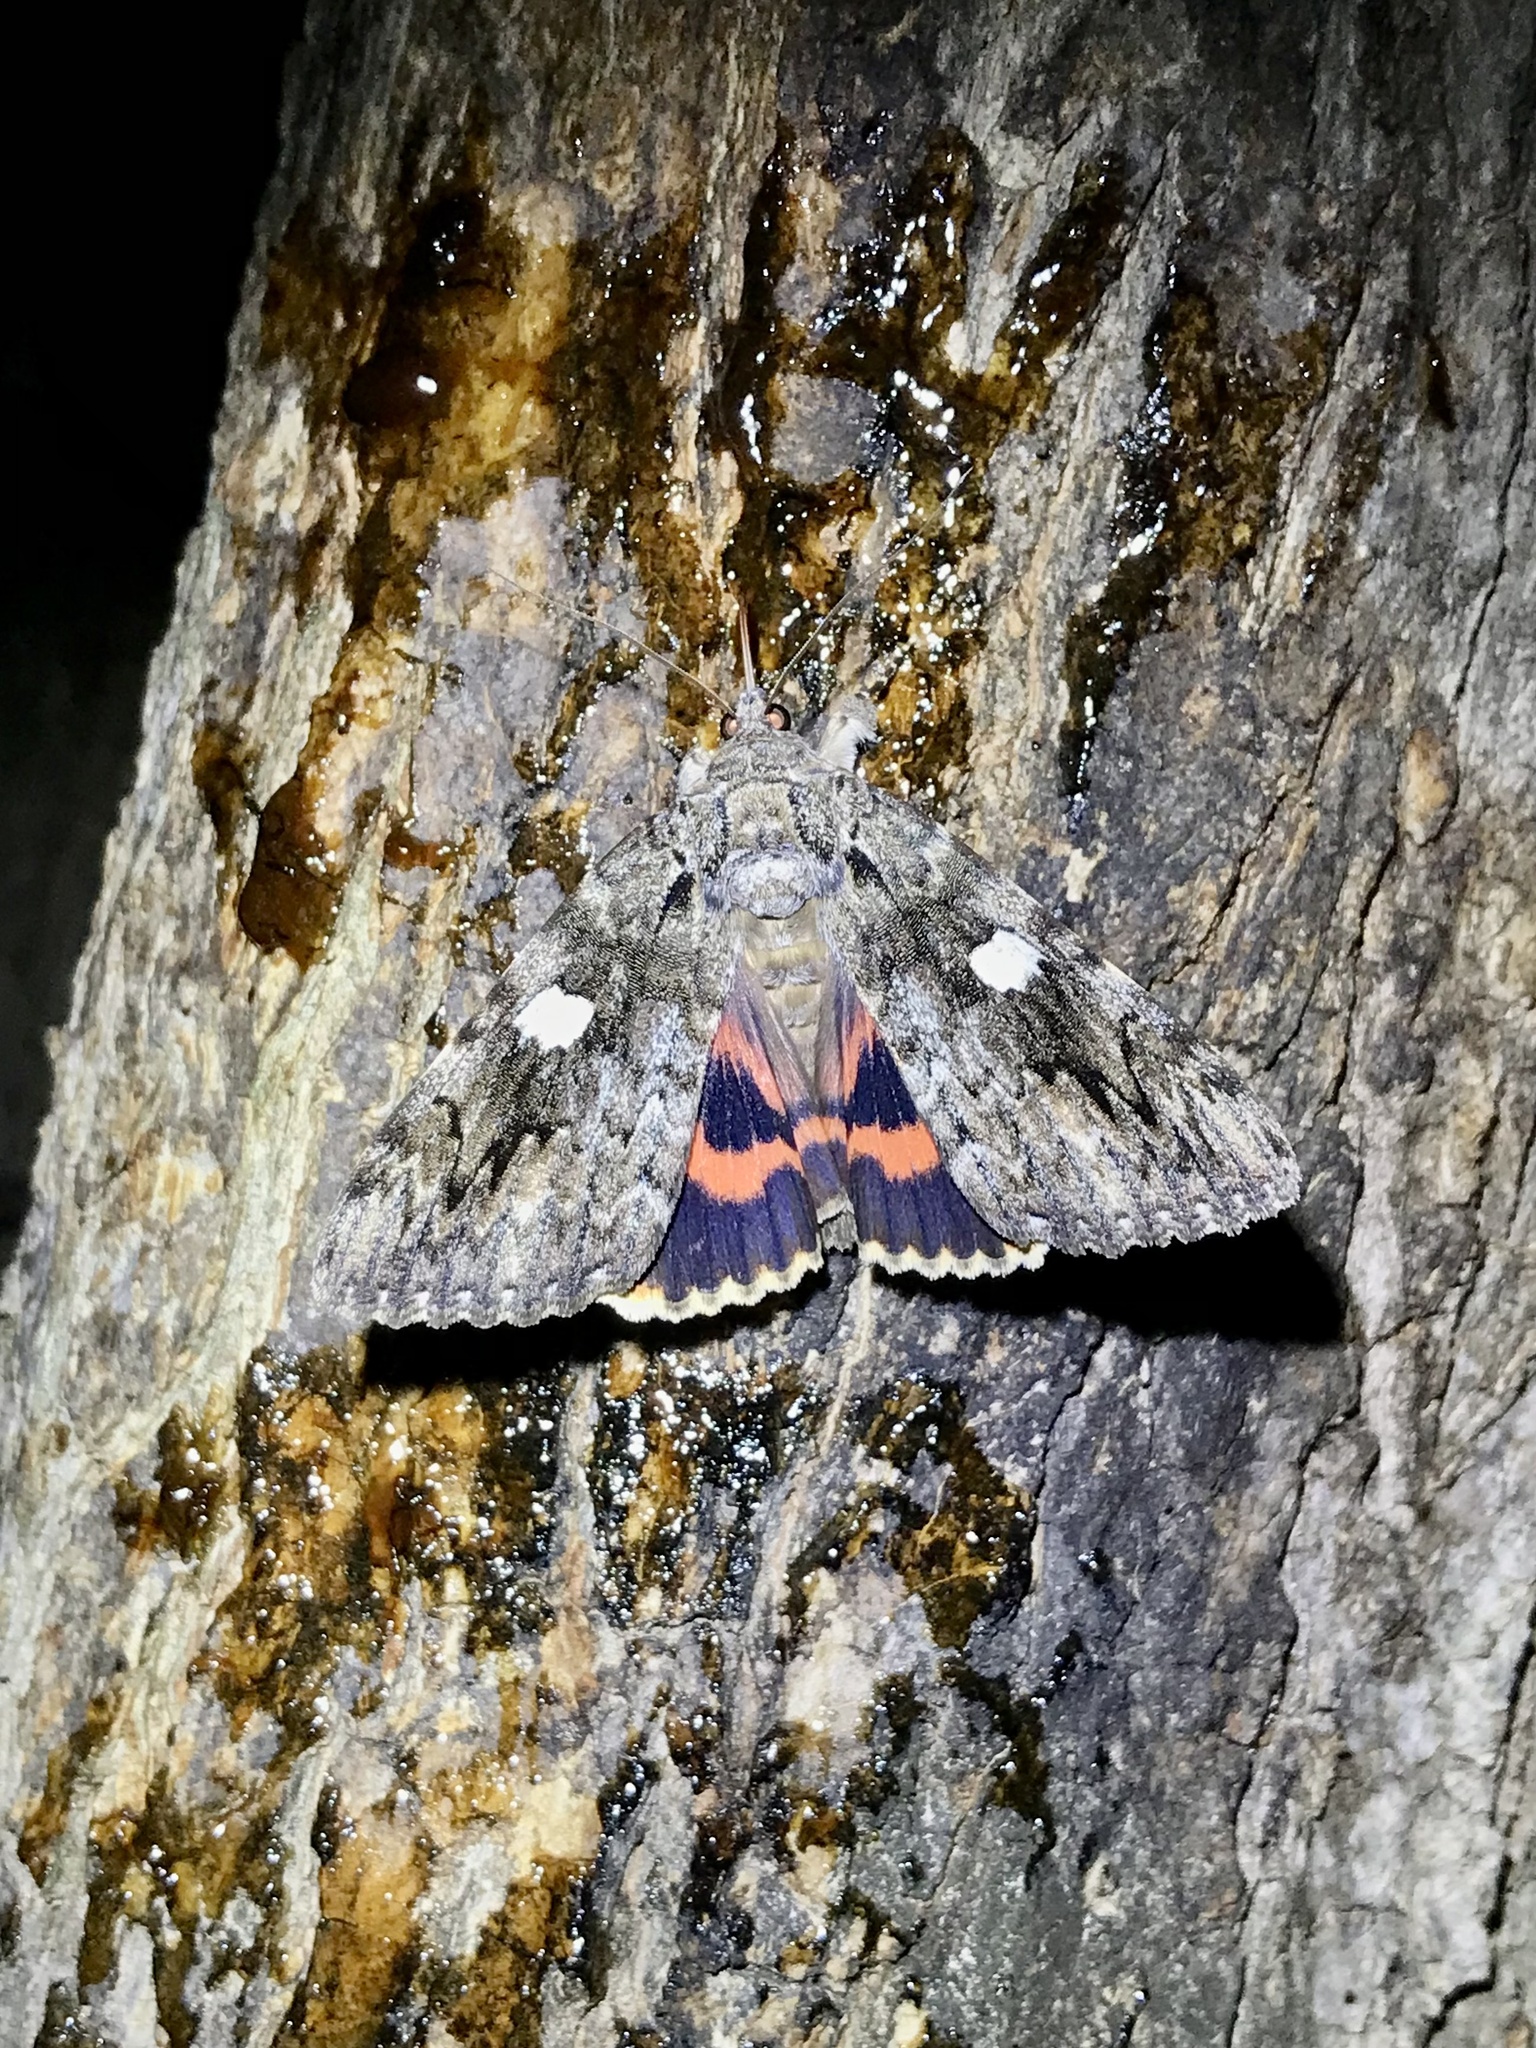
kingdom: Animalia
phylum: Arthropoda
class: Insecta
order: Lepidoptera
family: Erebidae
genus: Catocala
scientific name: Catocala ilia
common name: Ilia underwing
